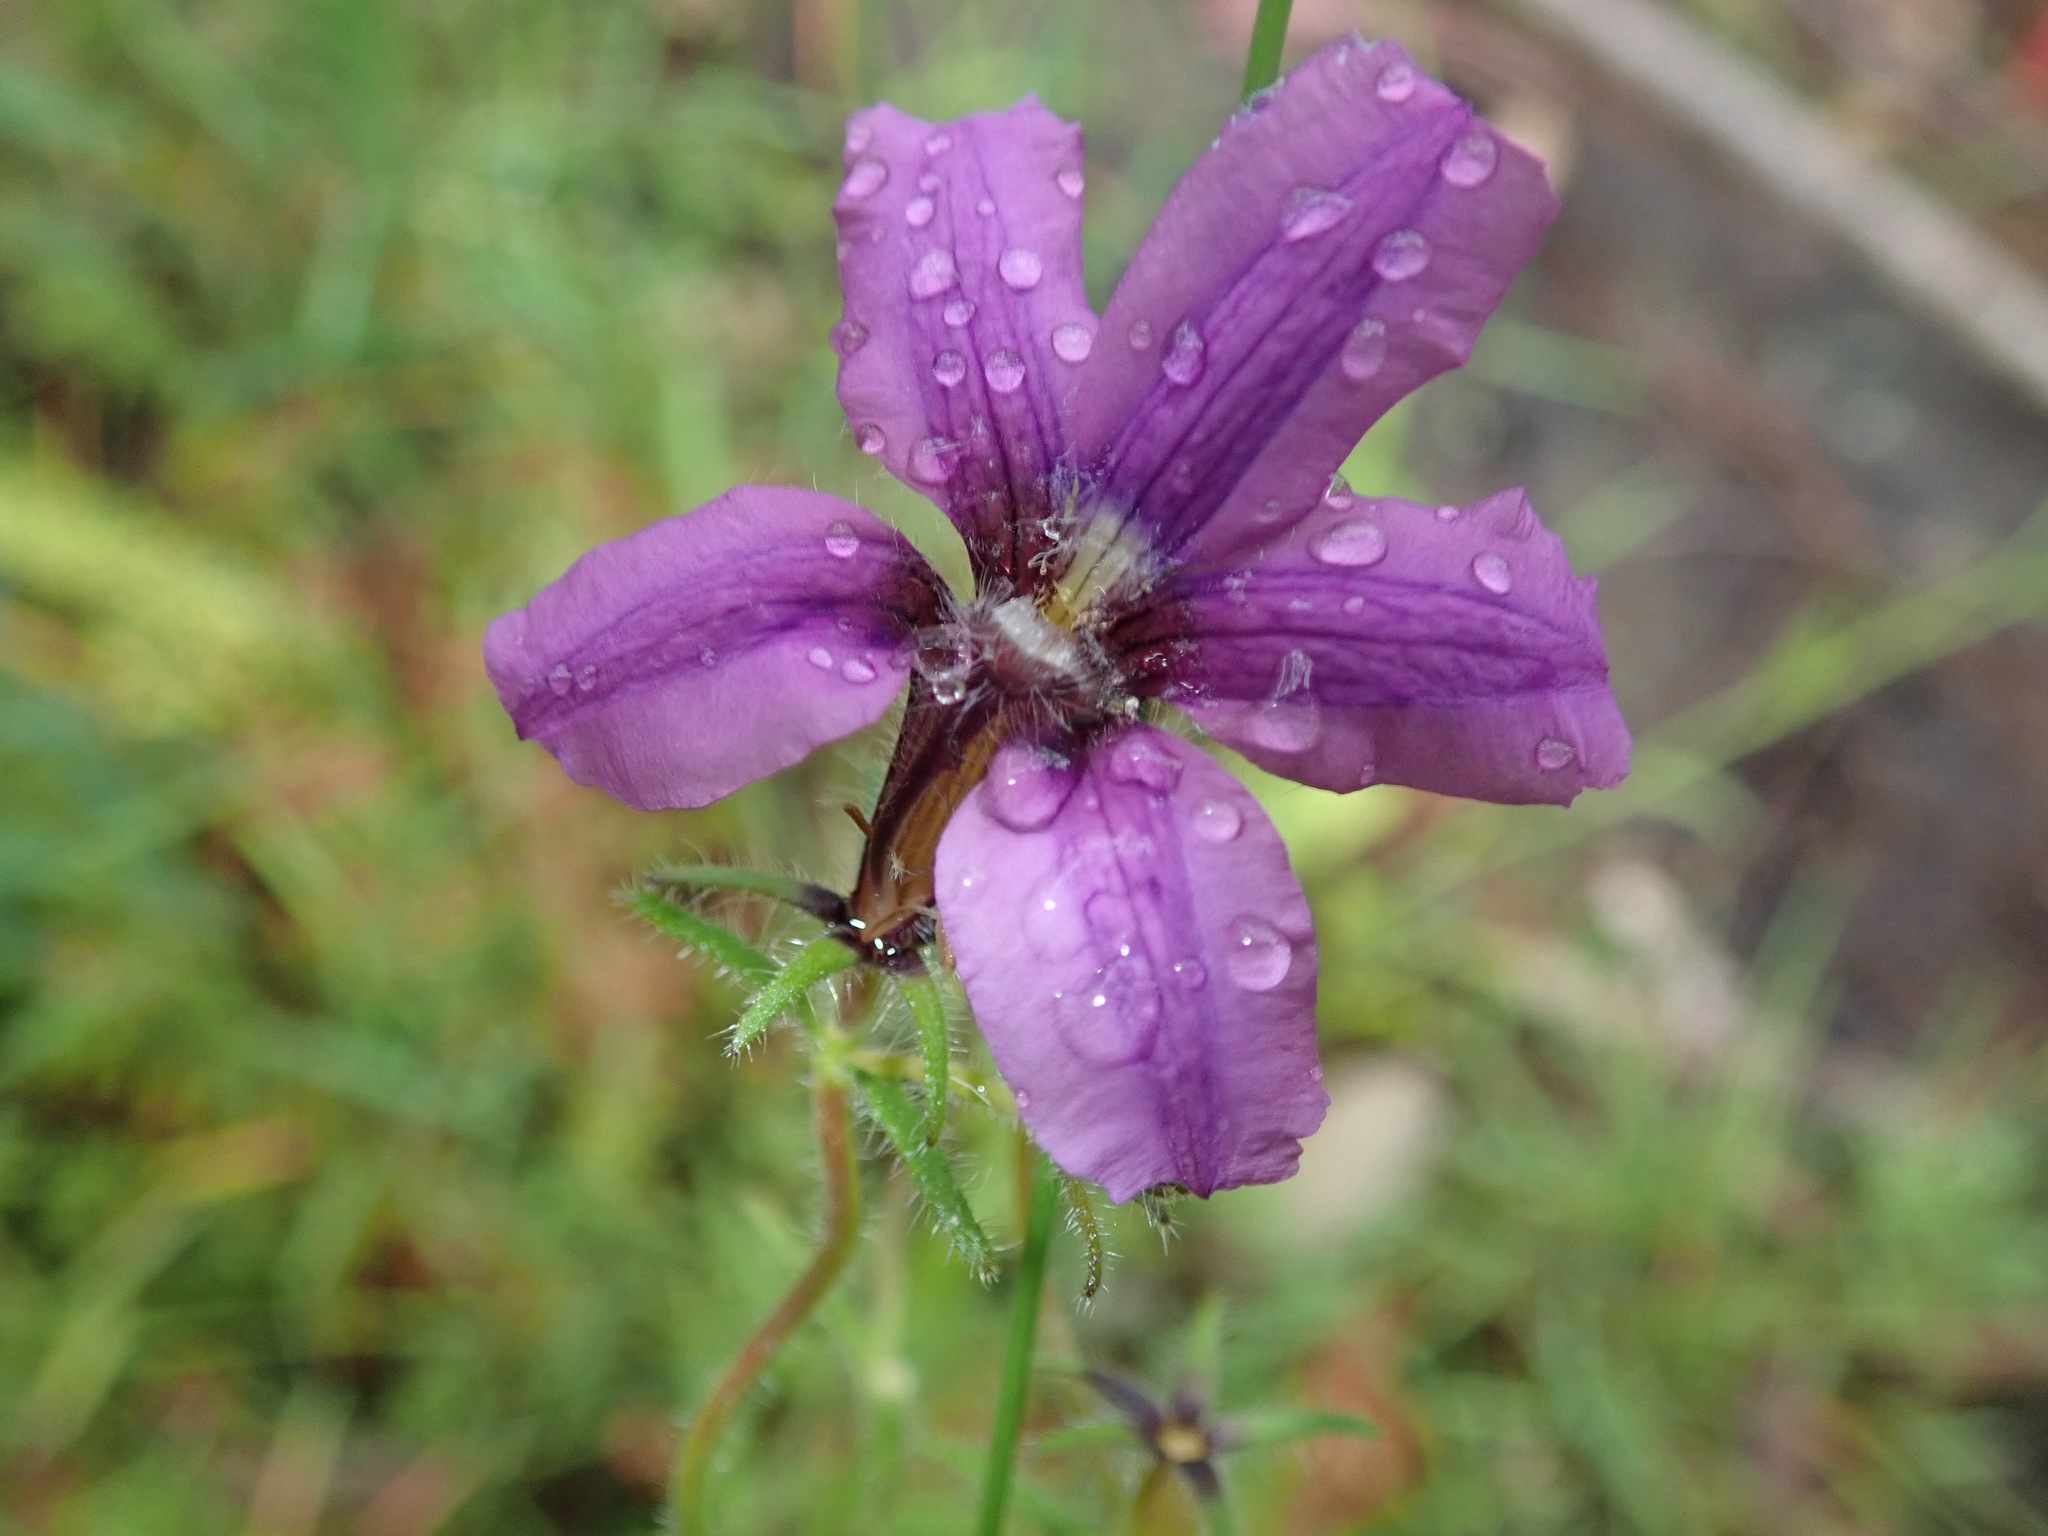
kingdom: Plantae
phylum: Tracheophyta
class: Magnoliopsida
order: Asterales
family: Goodeniaceae
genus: Scaevola
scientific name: Scaevola ramosissima
